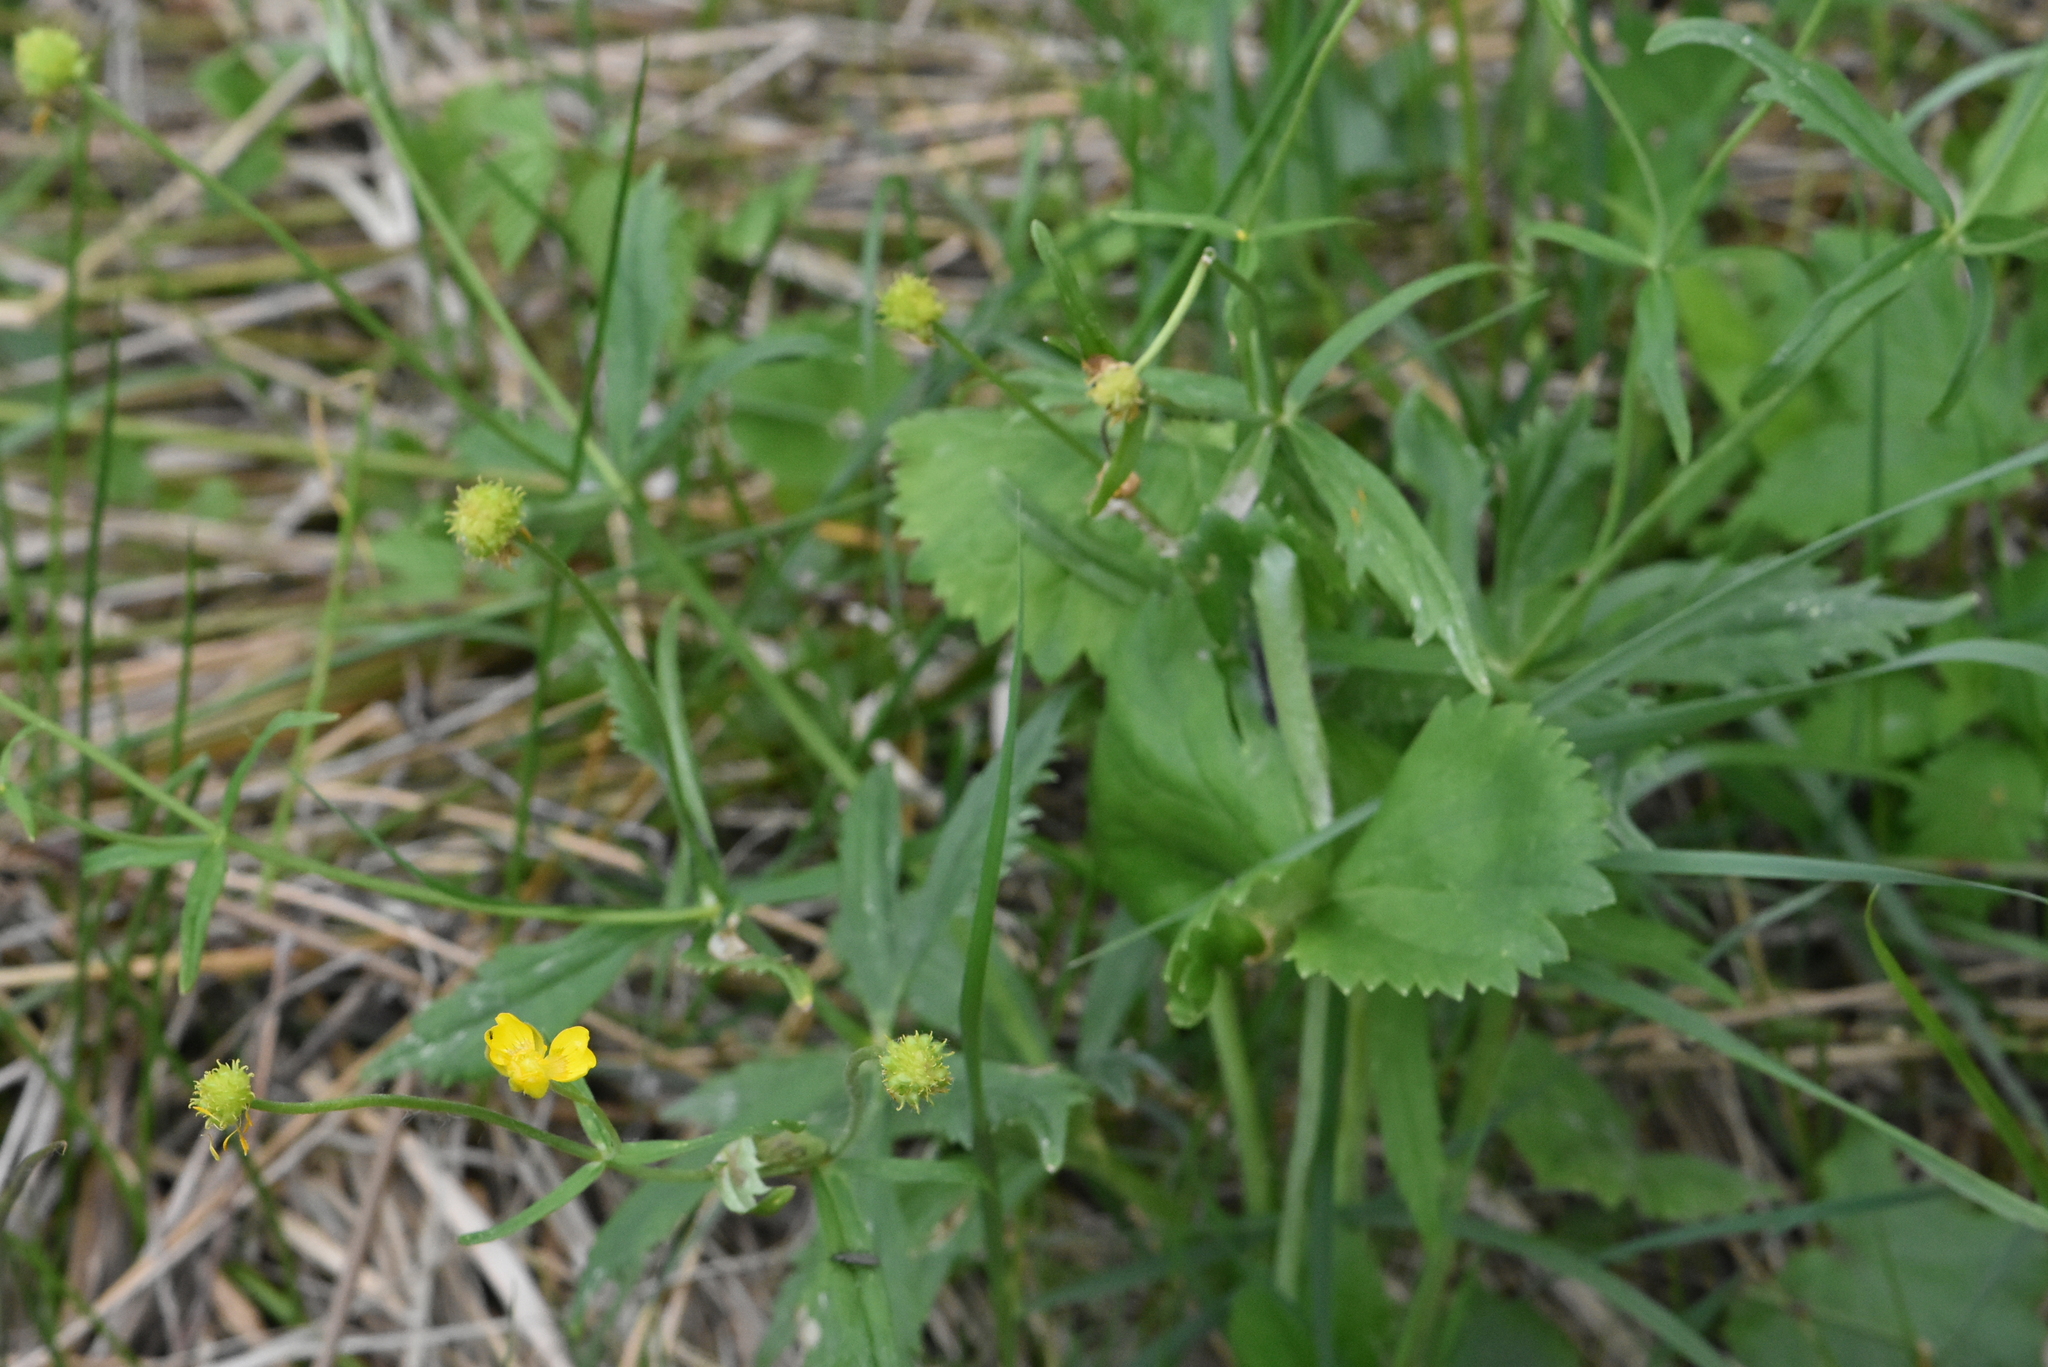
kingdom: Plantae
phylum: Tracheophyta
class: Magnoliopsida
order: Ranunculales
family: Ranunculaceae
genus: Ranunculus
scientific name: Ranunculus cassubicus
